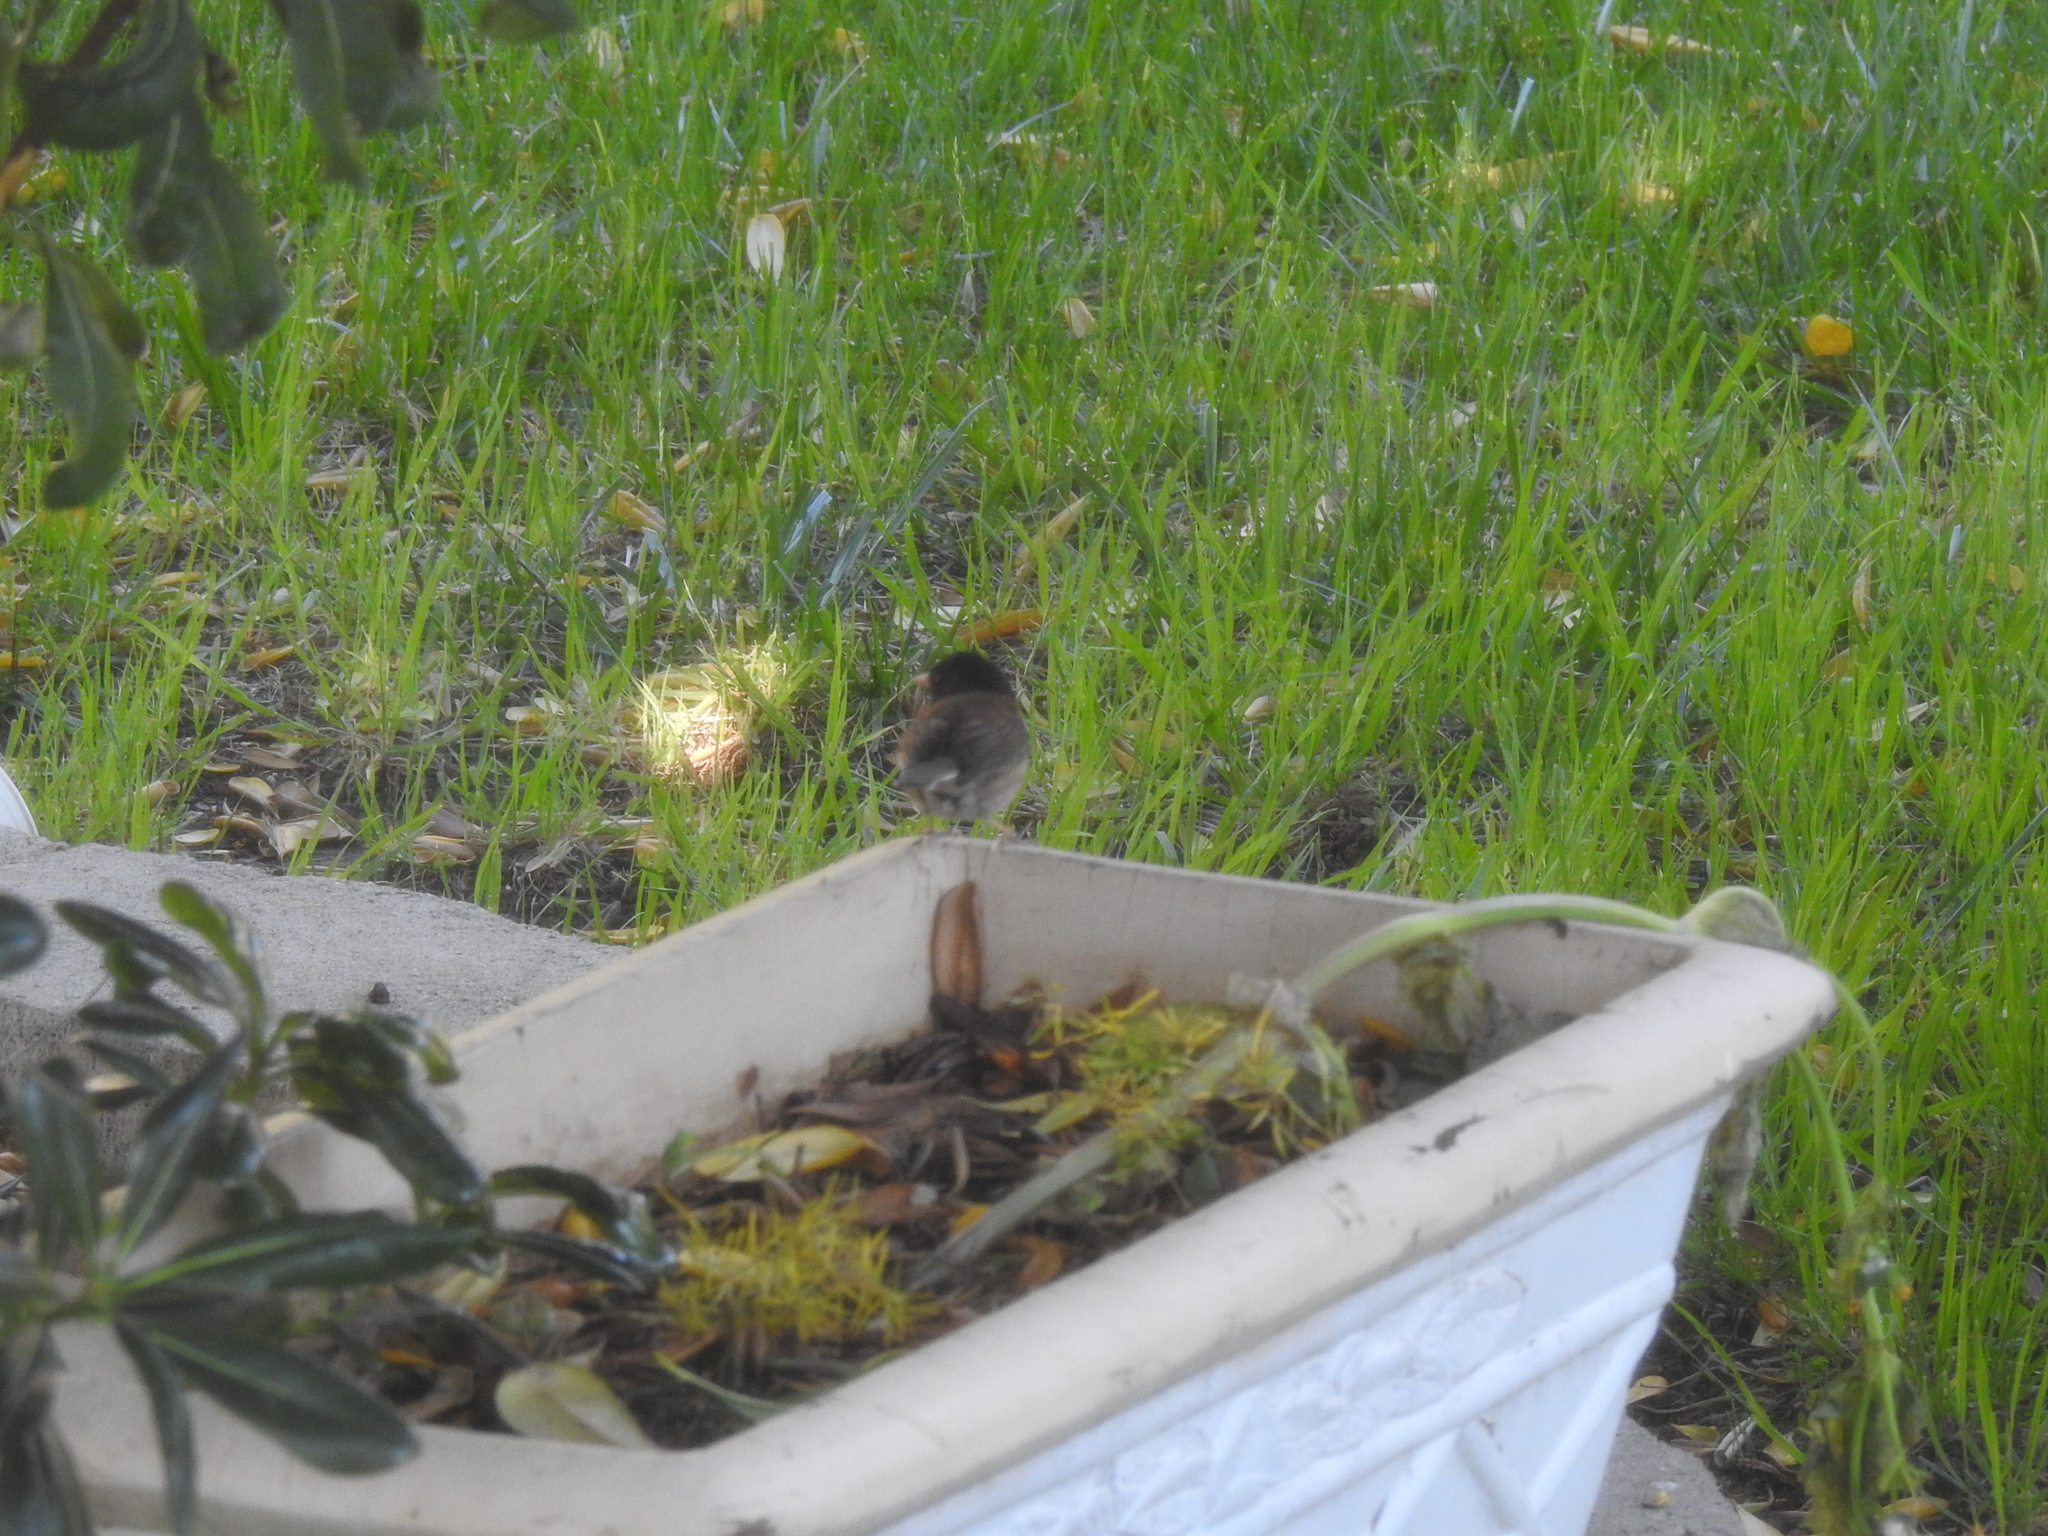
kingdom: Animalia
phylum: Chordata
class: Aves
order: Passeriformes
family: Passerellidae
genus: Junco
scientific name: Junco hyemalis
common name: Dark-eyed junco
